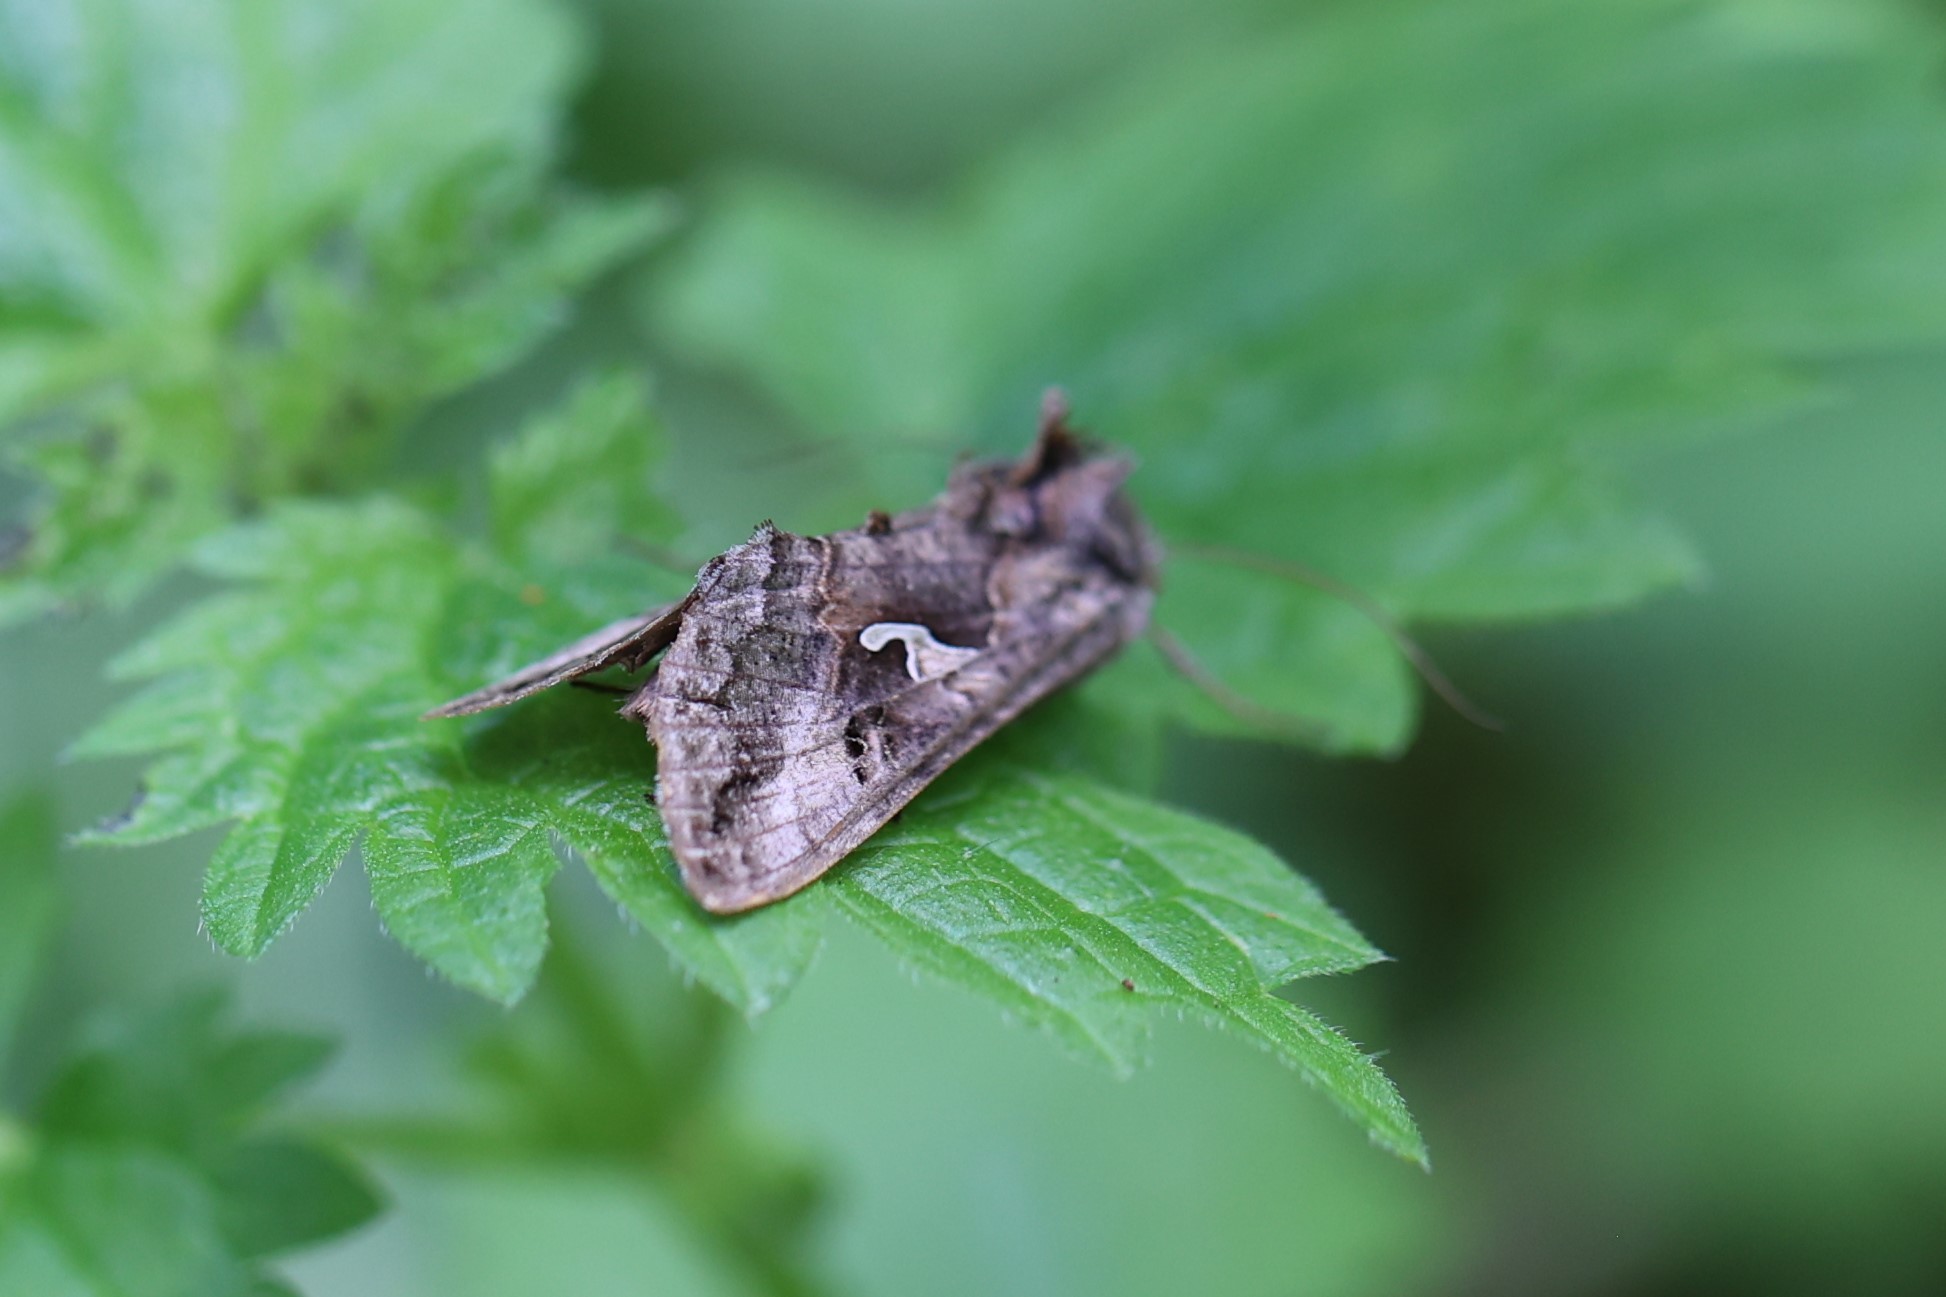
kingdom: Animalia
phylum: Arthropoda
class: Insecta
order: Lepidoptera
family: Noctuidae
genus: Autographa
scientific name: Autographa gamma
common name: Silver y
